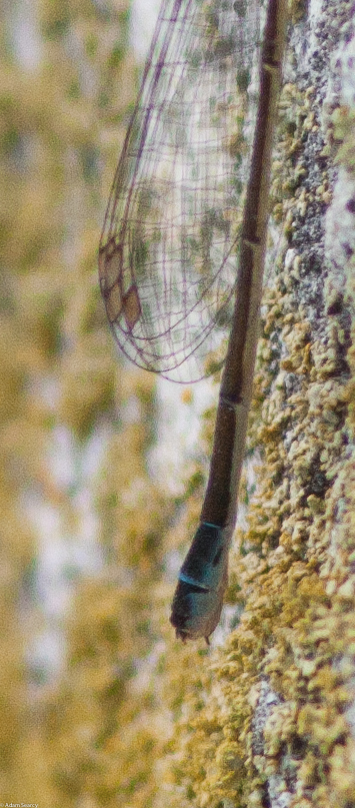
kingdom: Animalia
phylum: Arthropoda
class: Insecta
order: Odonata
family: Coenagrionidae
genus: Ischnura
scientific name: Ischnura cervula
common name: Pacific forktail
